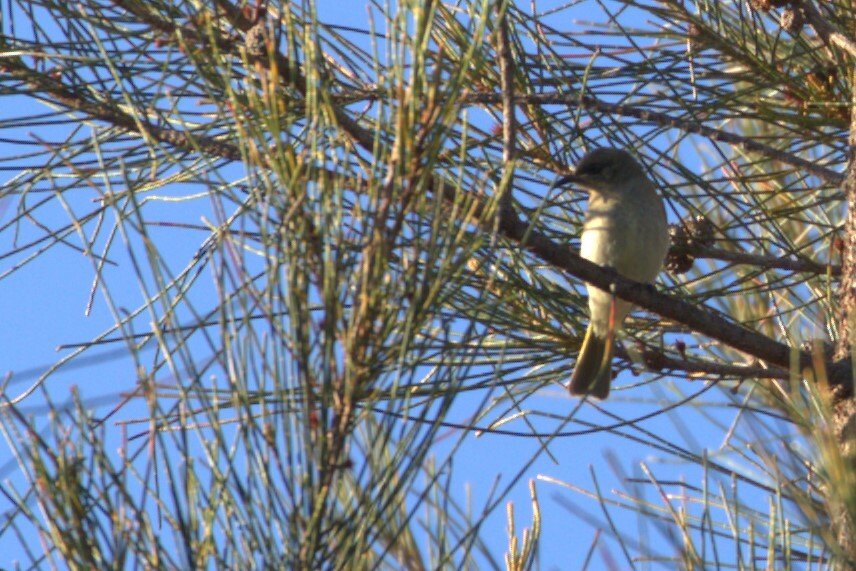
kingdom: Animalia
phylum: Chordata
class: Aves
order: Passeriformes
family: Meliphagidae
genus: Lichmera
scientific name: Lichmera indistincta
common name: Brown honeyeater
